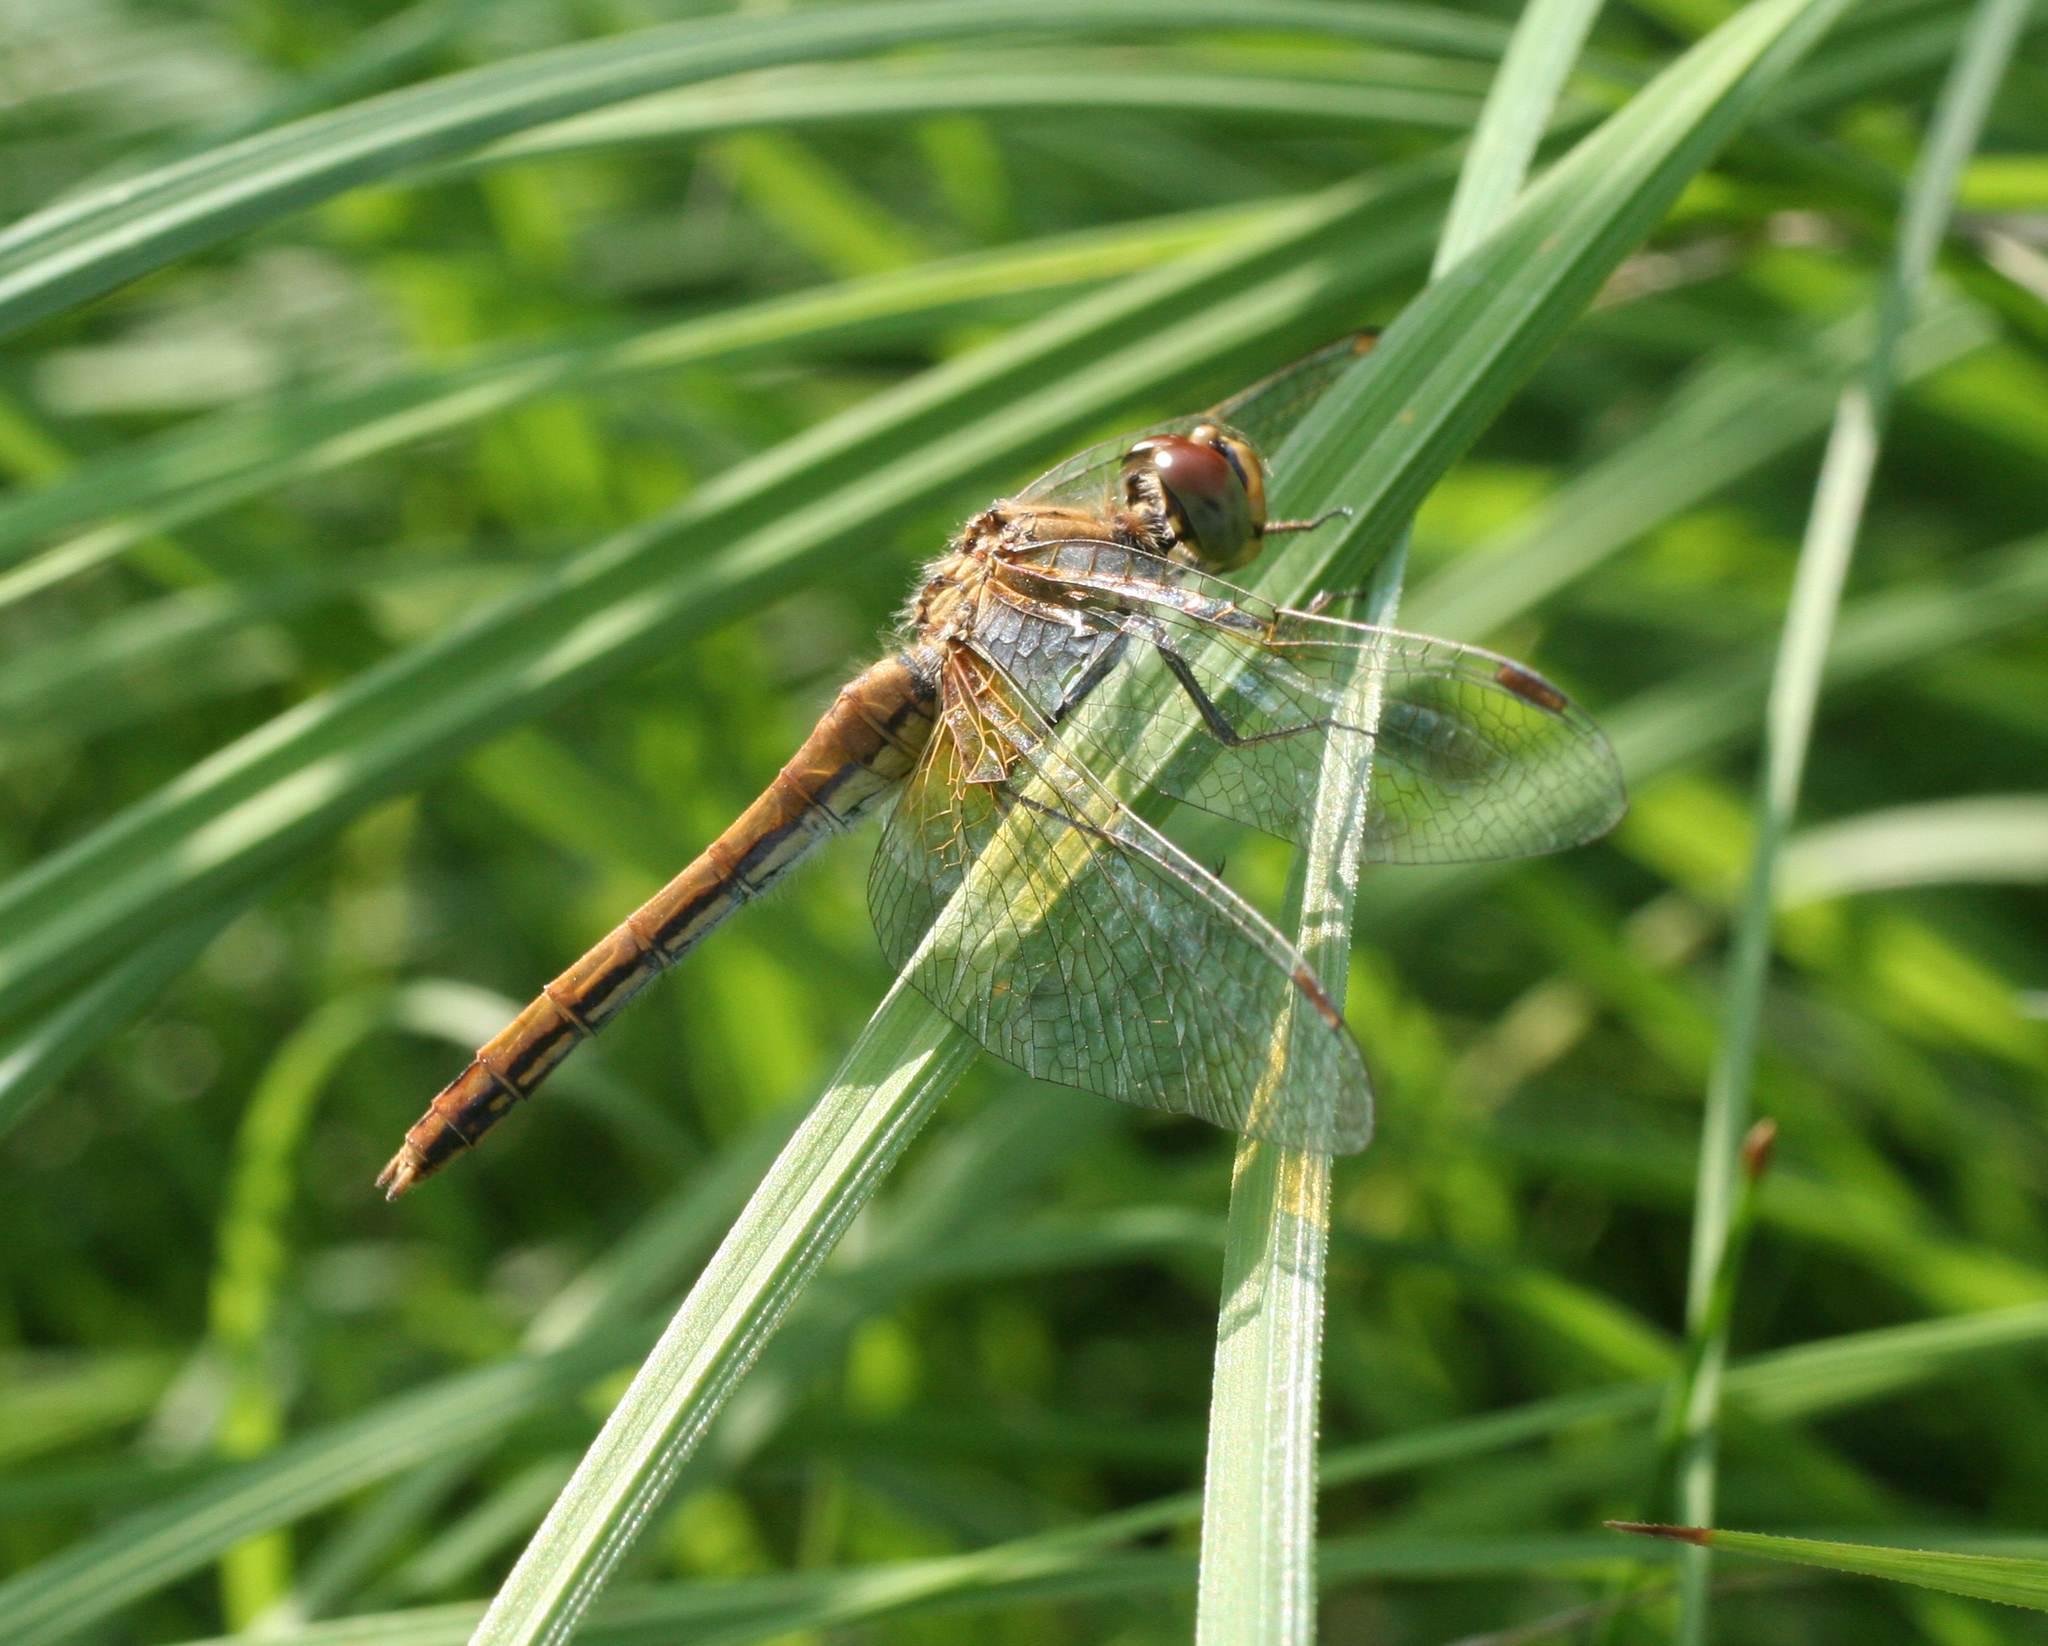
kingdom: Animalia
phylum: Arthropoda
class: Insecta
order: Odonata
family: Libellulidae
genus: Sympetrum
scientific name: Sympetrum flaveolum
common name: Yellow-winged darter
